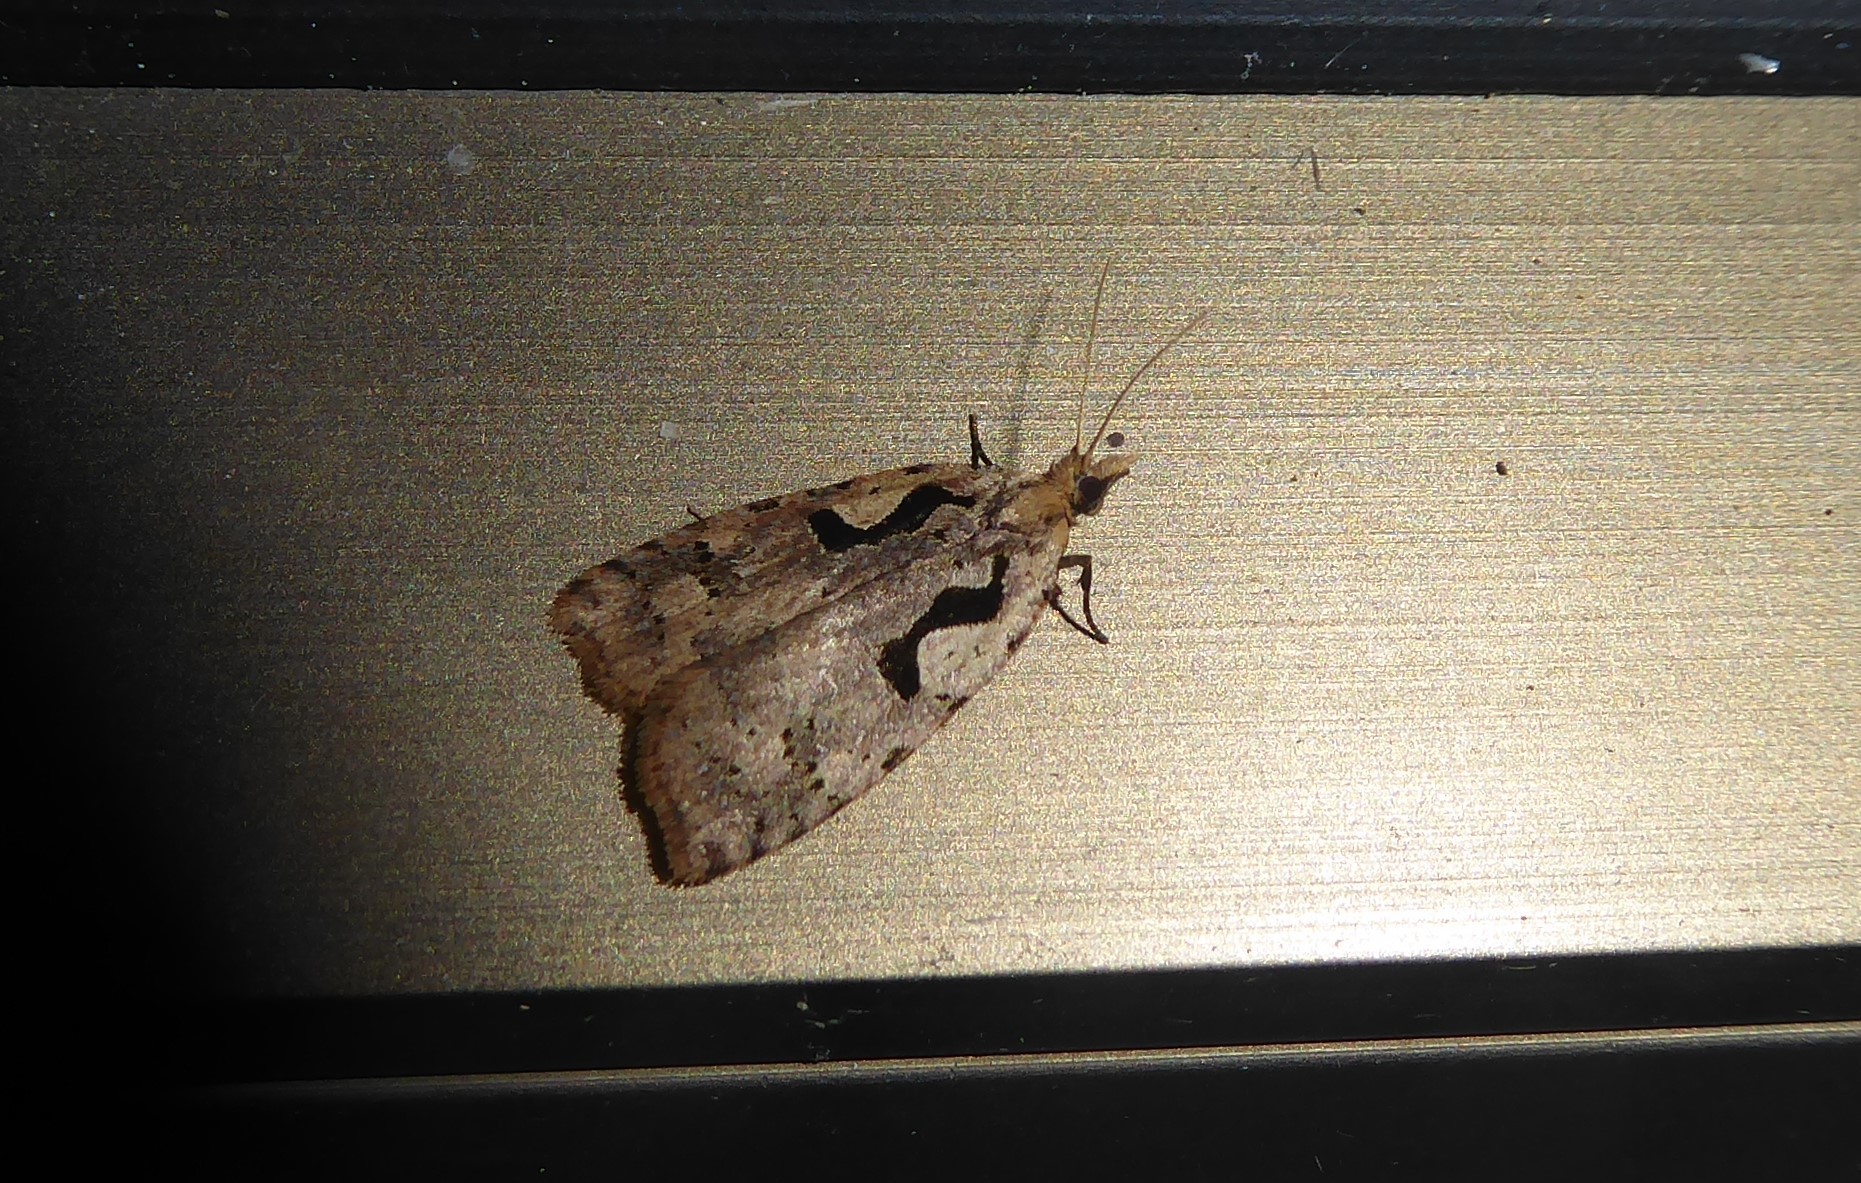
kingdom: Animalia
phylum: Arthropoda
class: Insecta
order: Lepidoptera
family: Tortricidae
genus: Cnephasia
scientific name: Cnephasia jactatana
